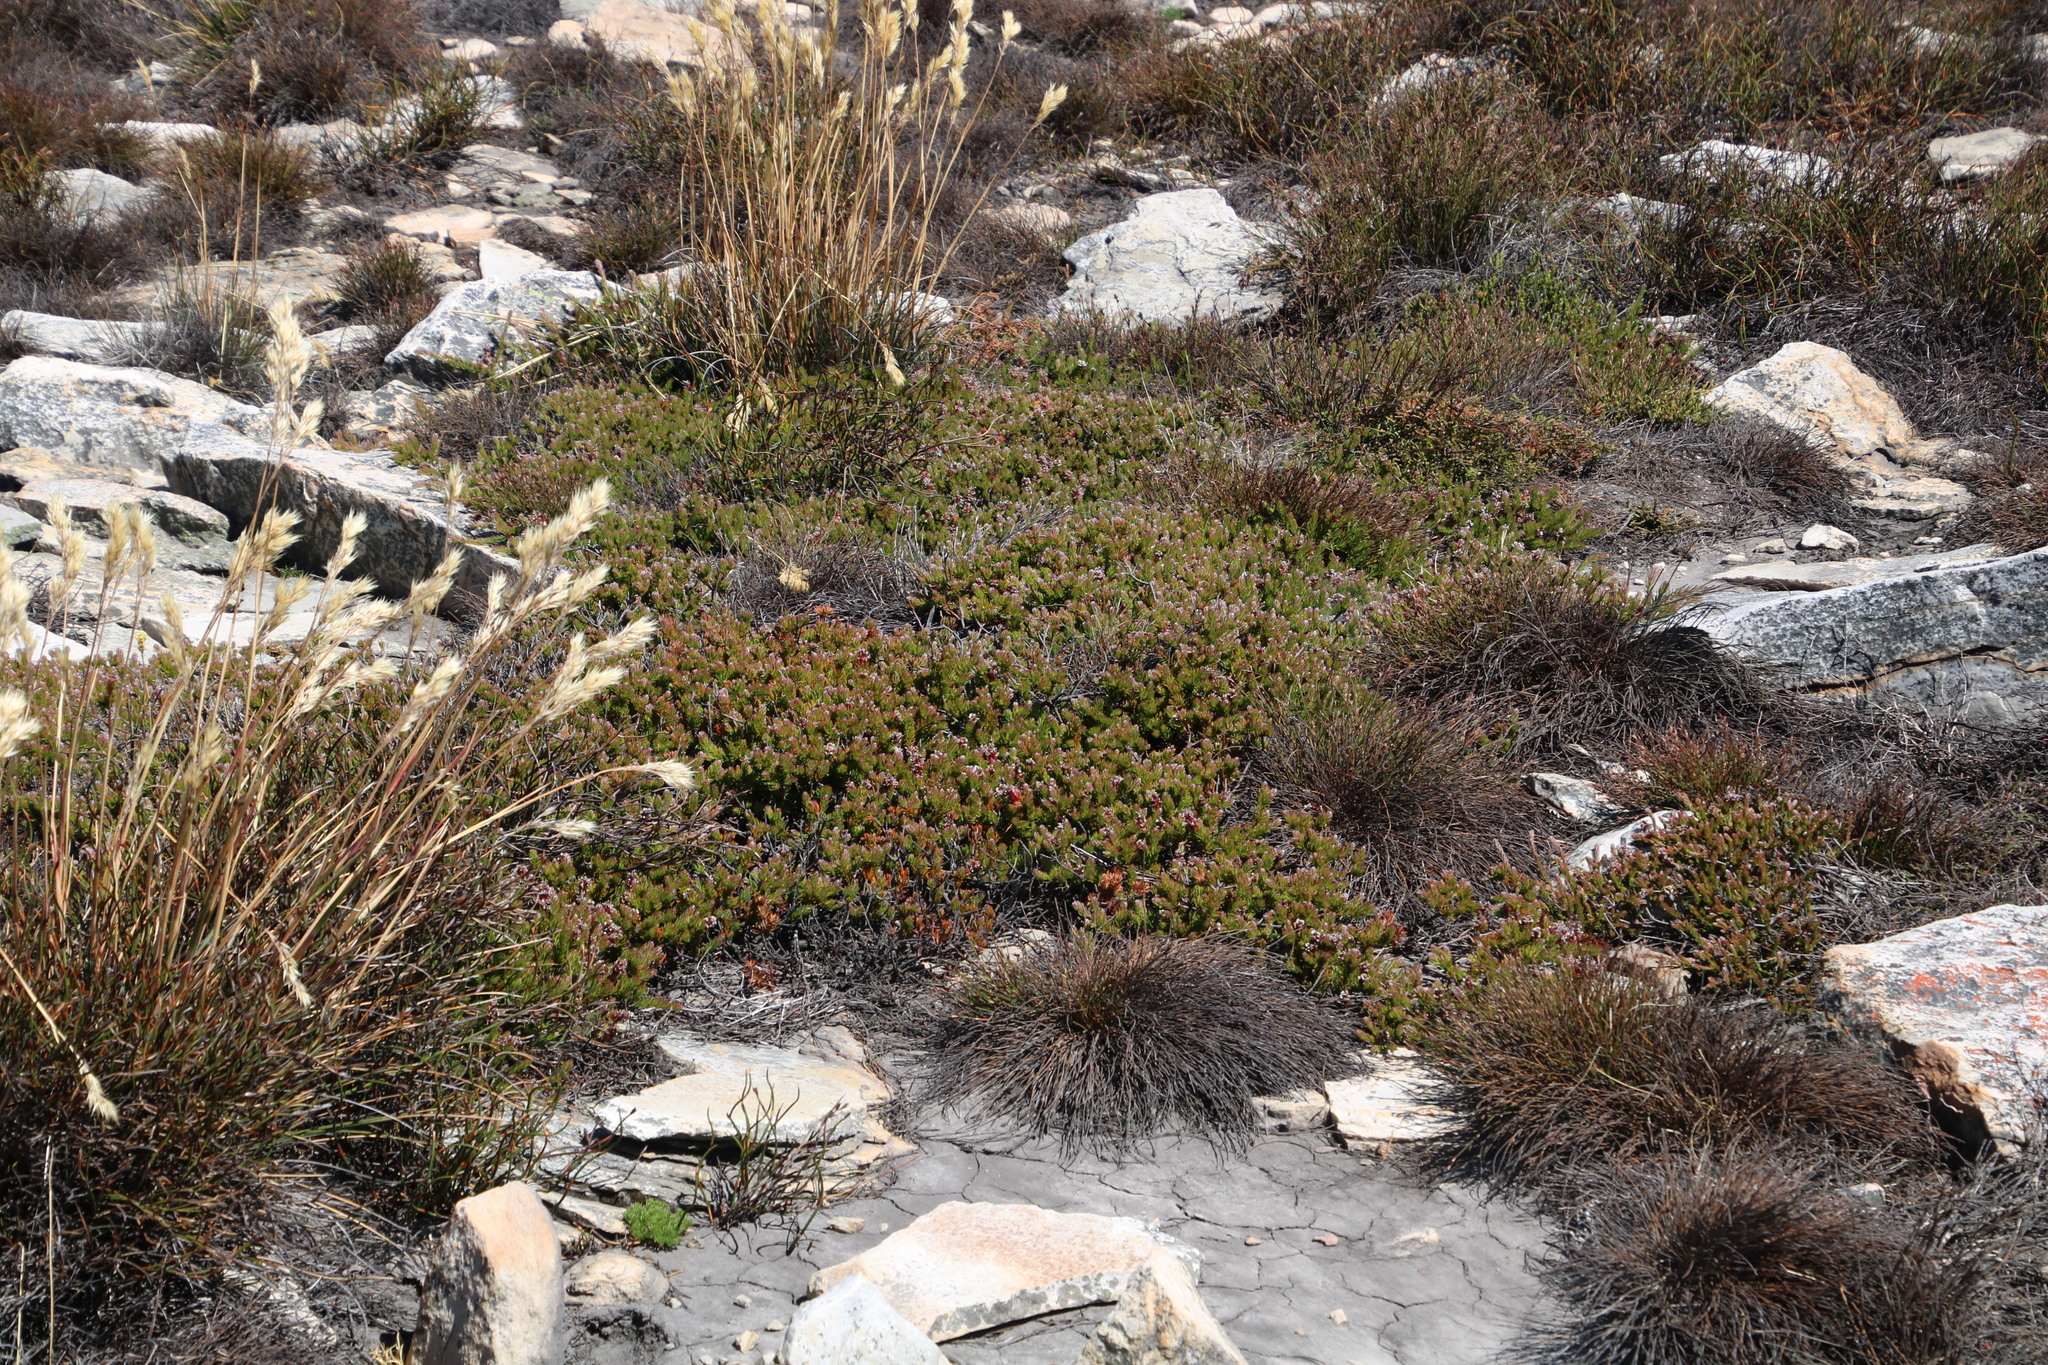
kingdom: Plantae
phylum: Tracheophyta
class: Magnoliopsida
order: Proteales
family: Proteaceae
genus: Spatalla
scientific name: Spatalla confusa
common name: Long-tube spoon
